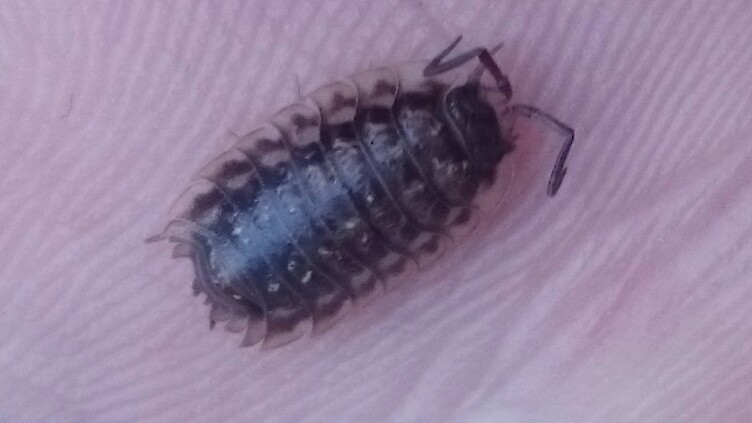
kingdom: Animalia
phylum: Arthropoda
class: Malacostraca
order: Isopoda
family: Oniscidae
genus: Oniscus
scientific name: Oniscus asellus
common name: Common shiny woodlouse
